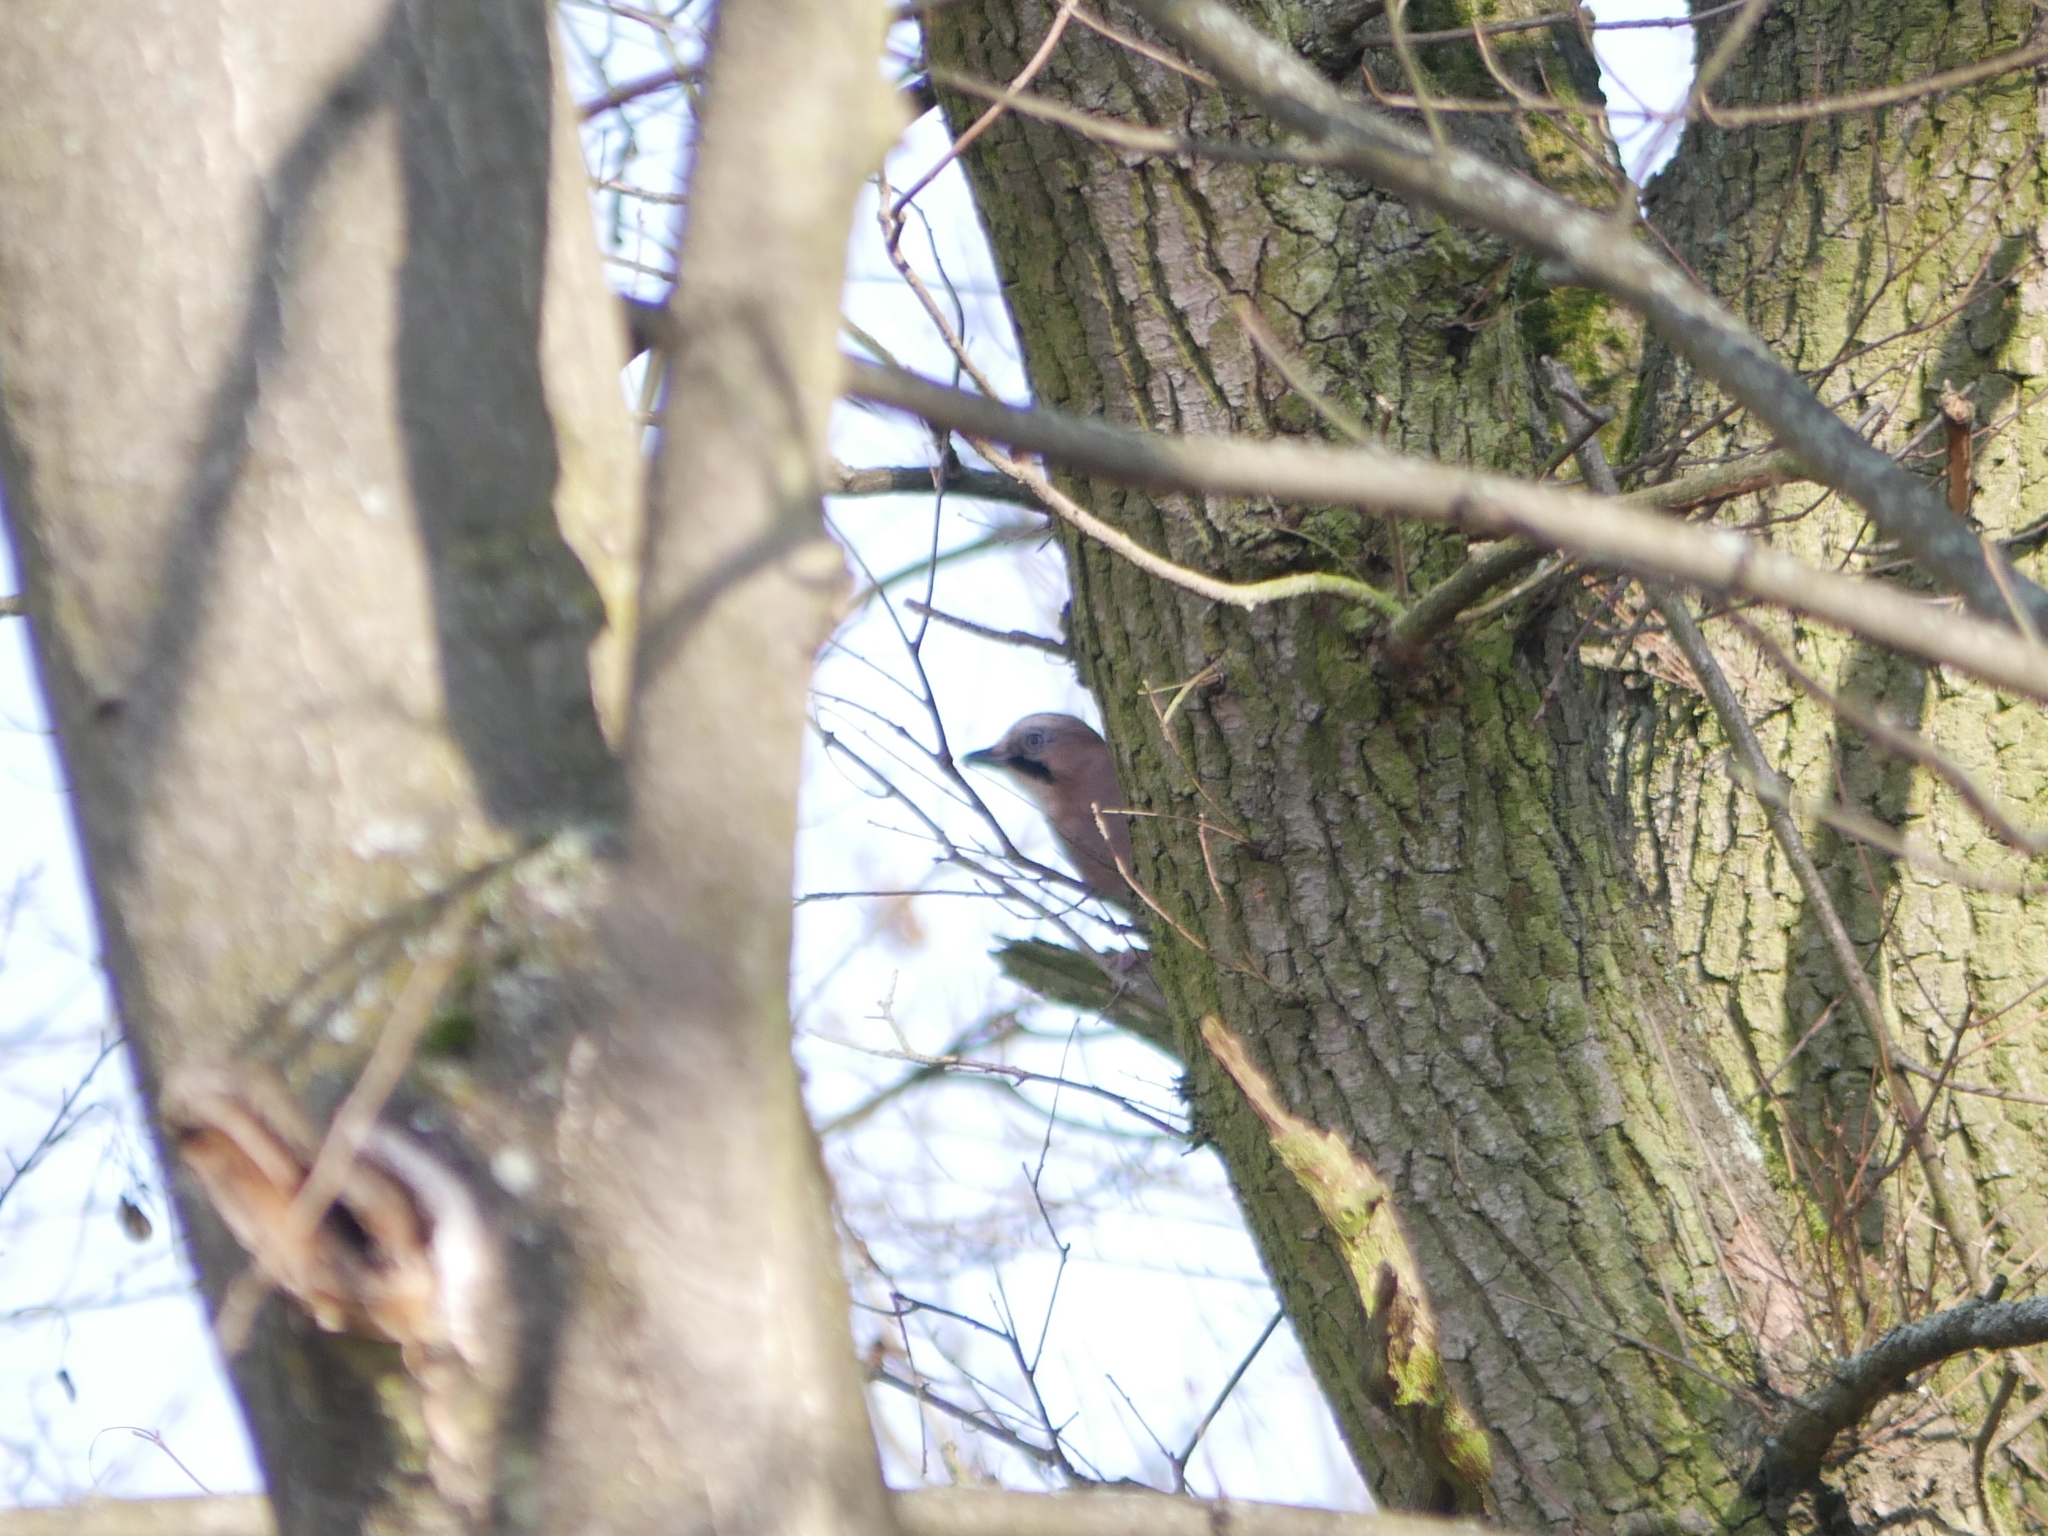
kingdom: Animalia
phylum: Chordata
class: Aves
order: Passeriformes
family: Corvidae
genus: Garrulus
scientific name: Garrulus glandarius
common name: Eurasian jay
